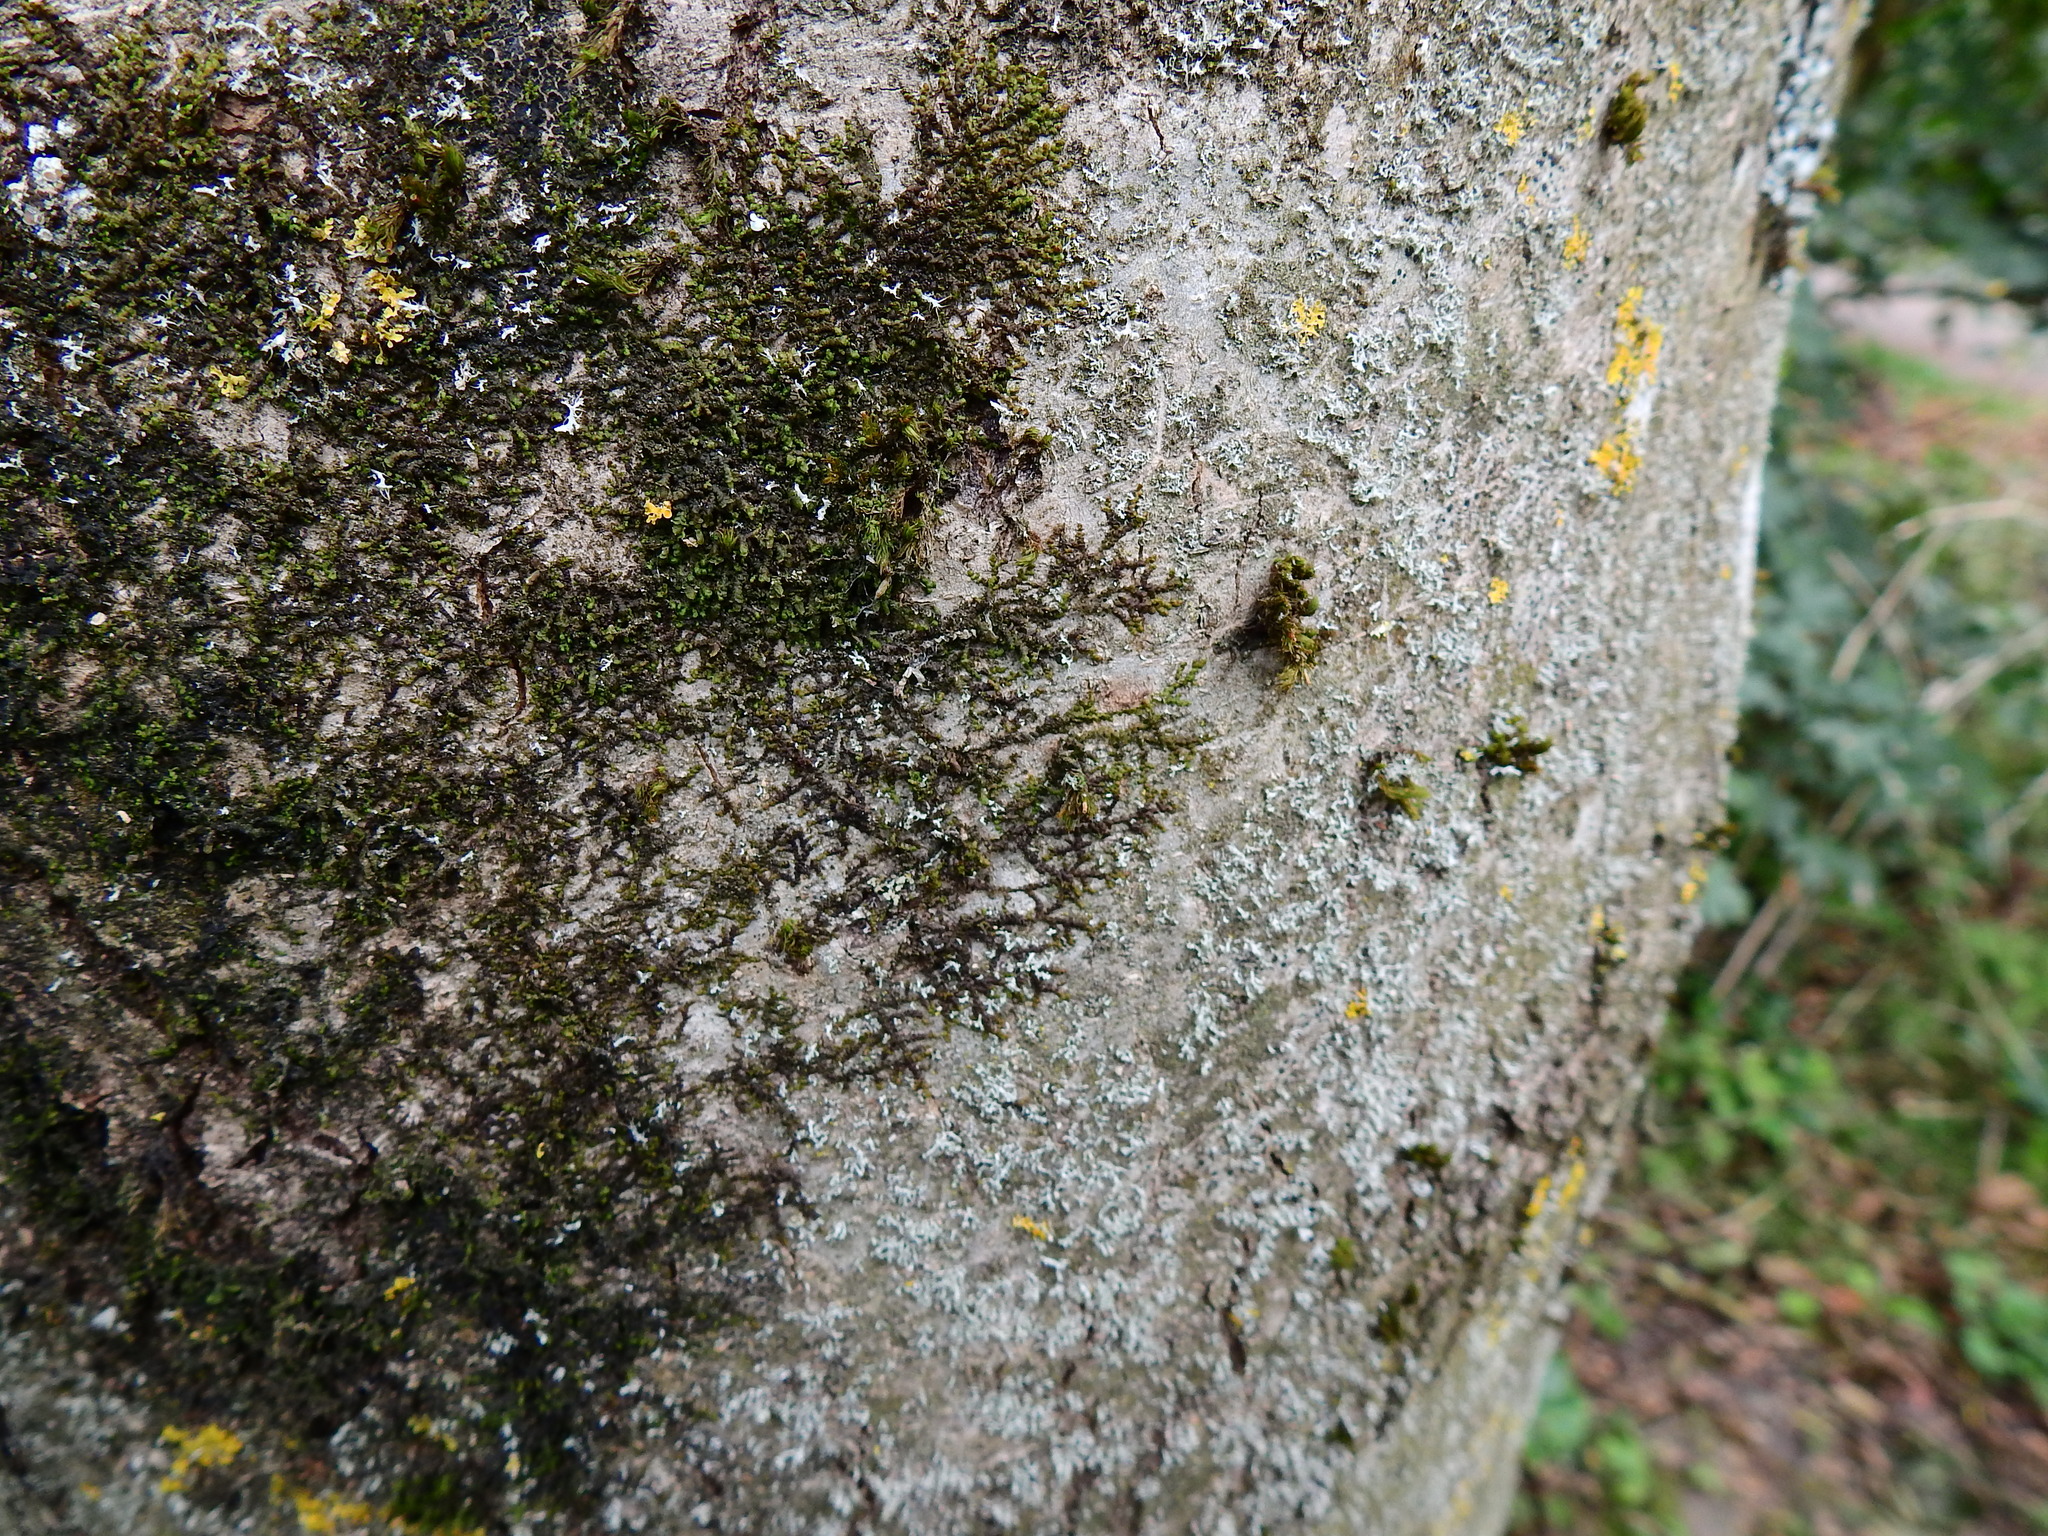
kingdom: Plantae
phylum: Marchantiophyta
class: Jungermanniopsida
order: Porellales
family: Frullaniaceae
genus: Frullania
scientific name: Frullania dilatata
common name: Dilated scalewort
